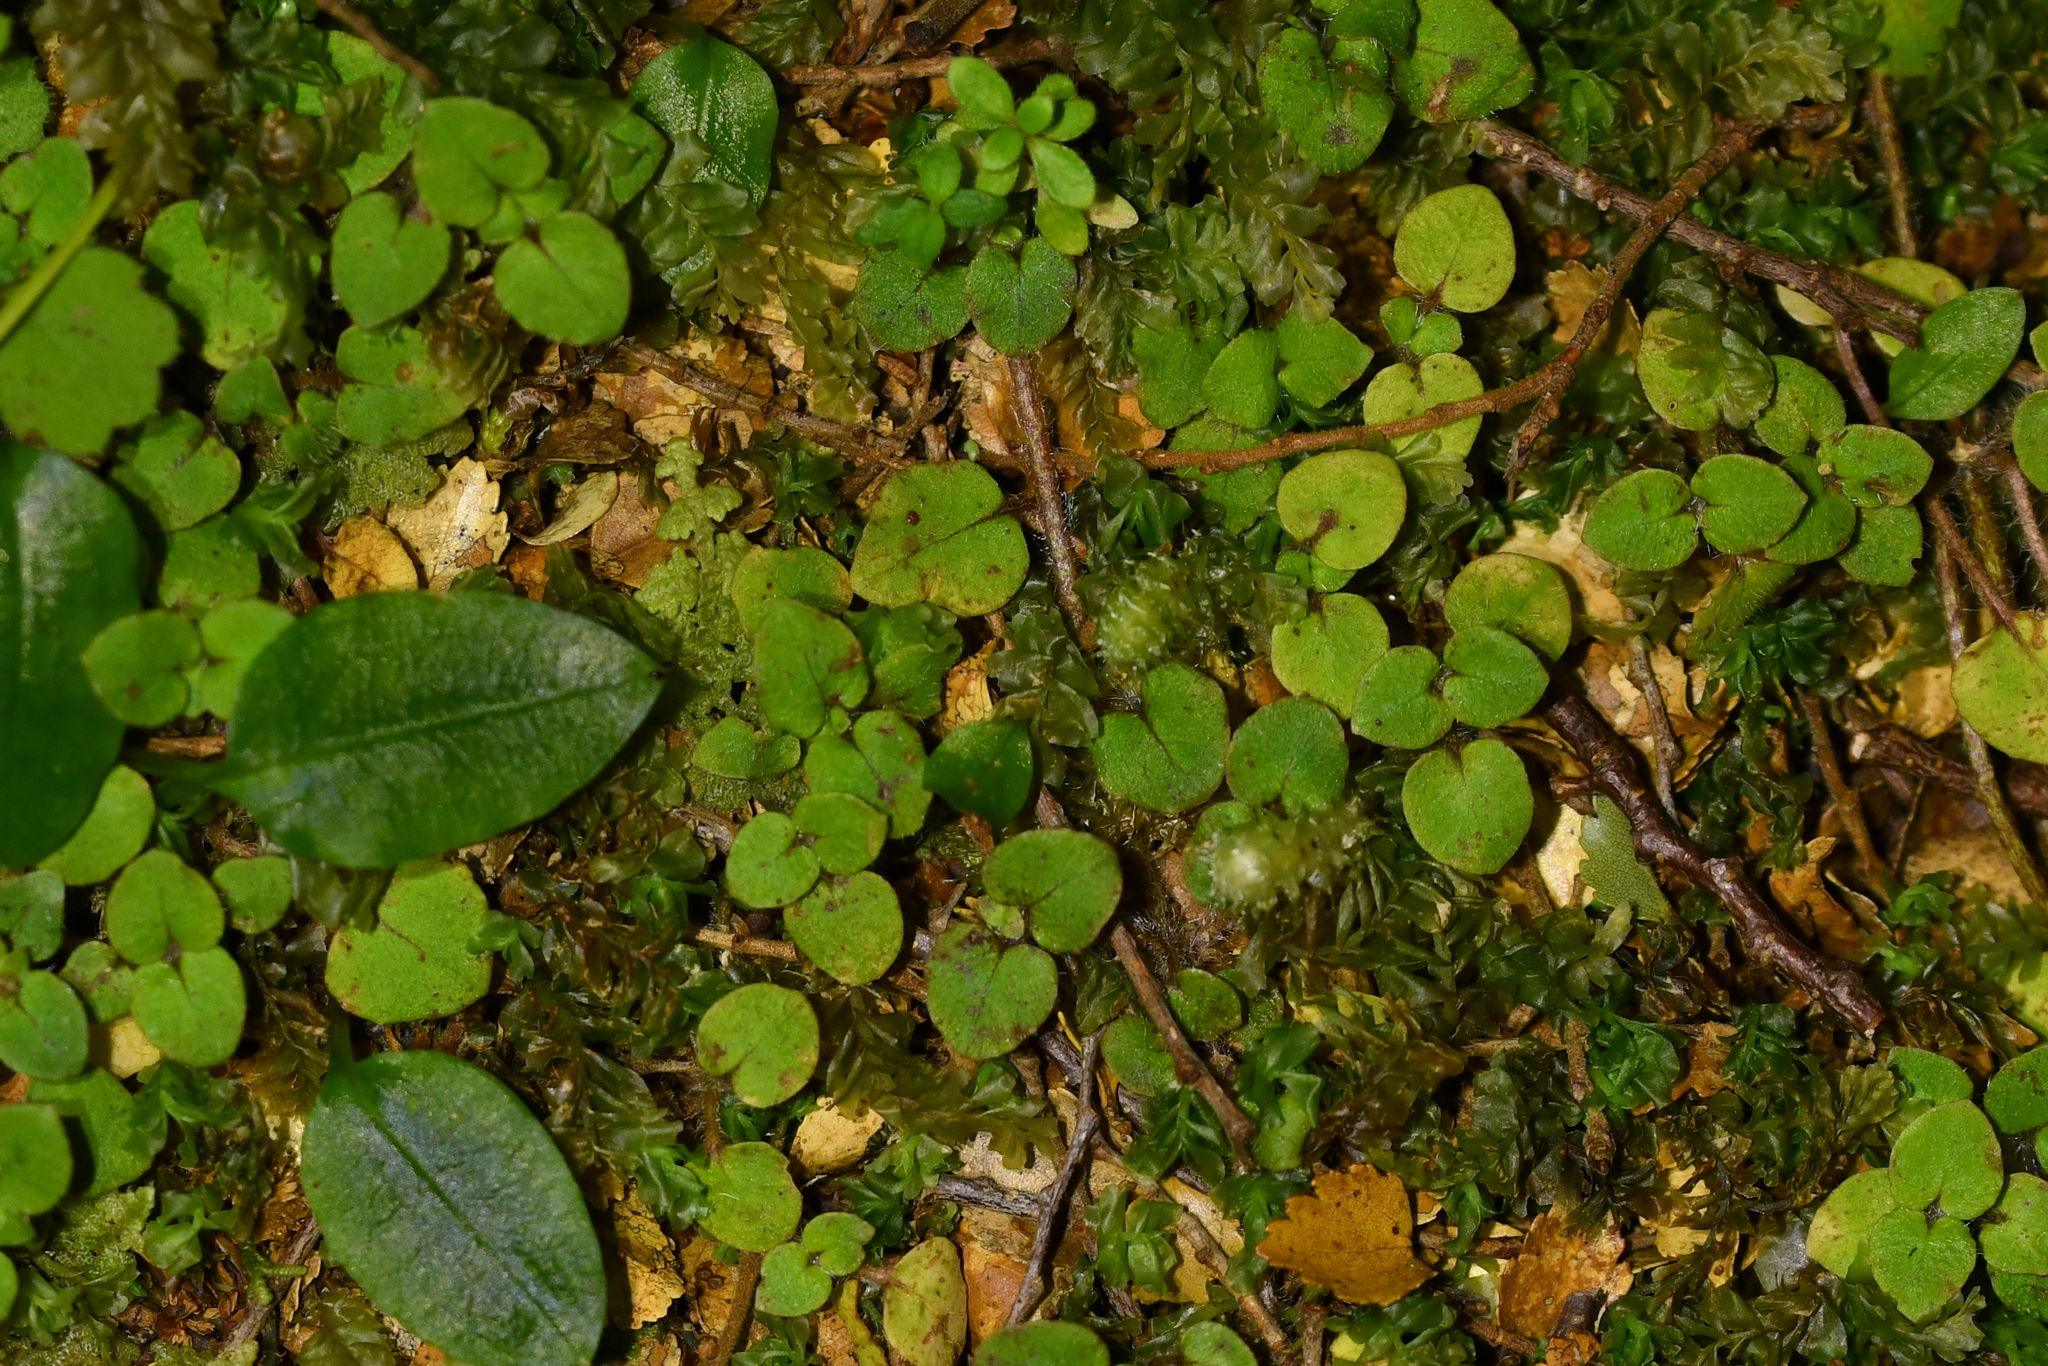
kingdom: Plantae
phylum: Tracheophyta
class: Magnoliopsida
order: Gentianales
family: Rubiaceae
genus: Nertera
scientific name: Nertera villosa
